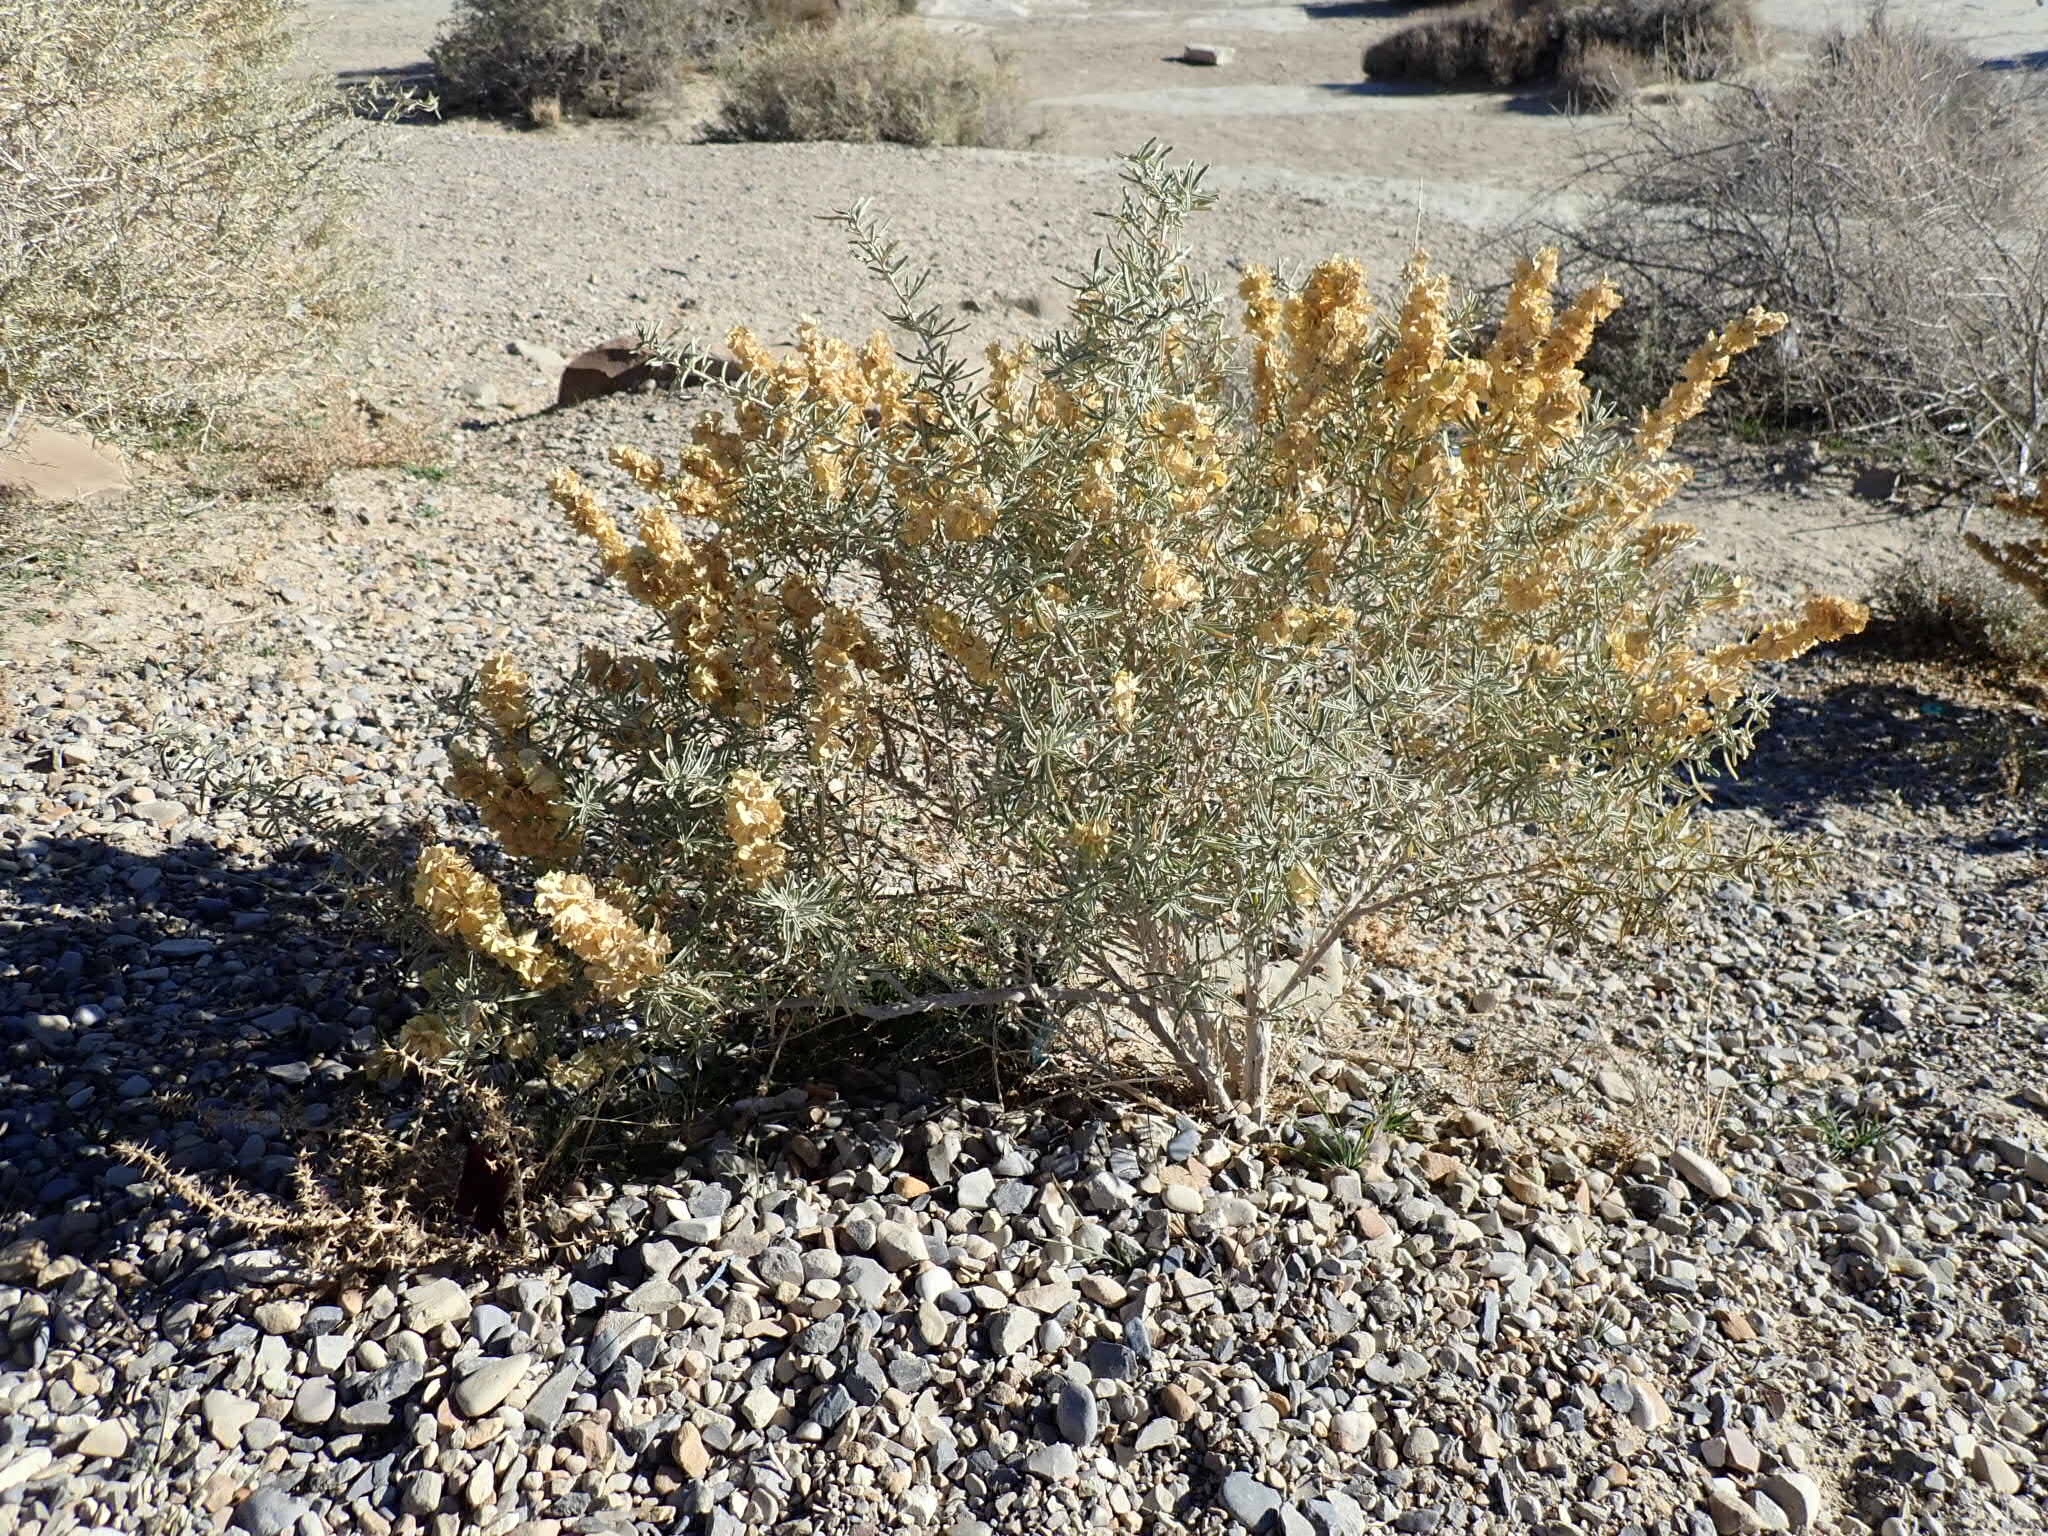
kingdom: Plantae
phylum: Tracheophyta
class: Magnoliopsida
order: Caryophyllales
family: Amaranthaceae
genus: Atriplex
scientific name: Atriplex canescens
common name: Four-wing saltbush
